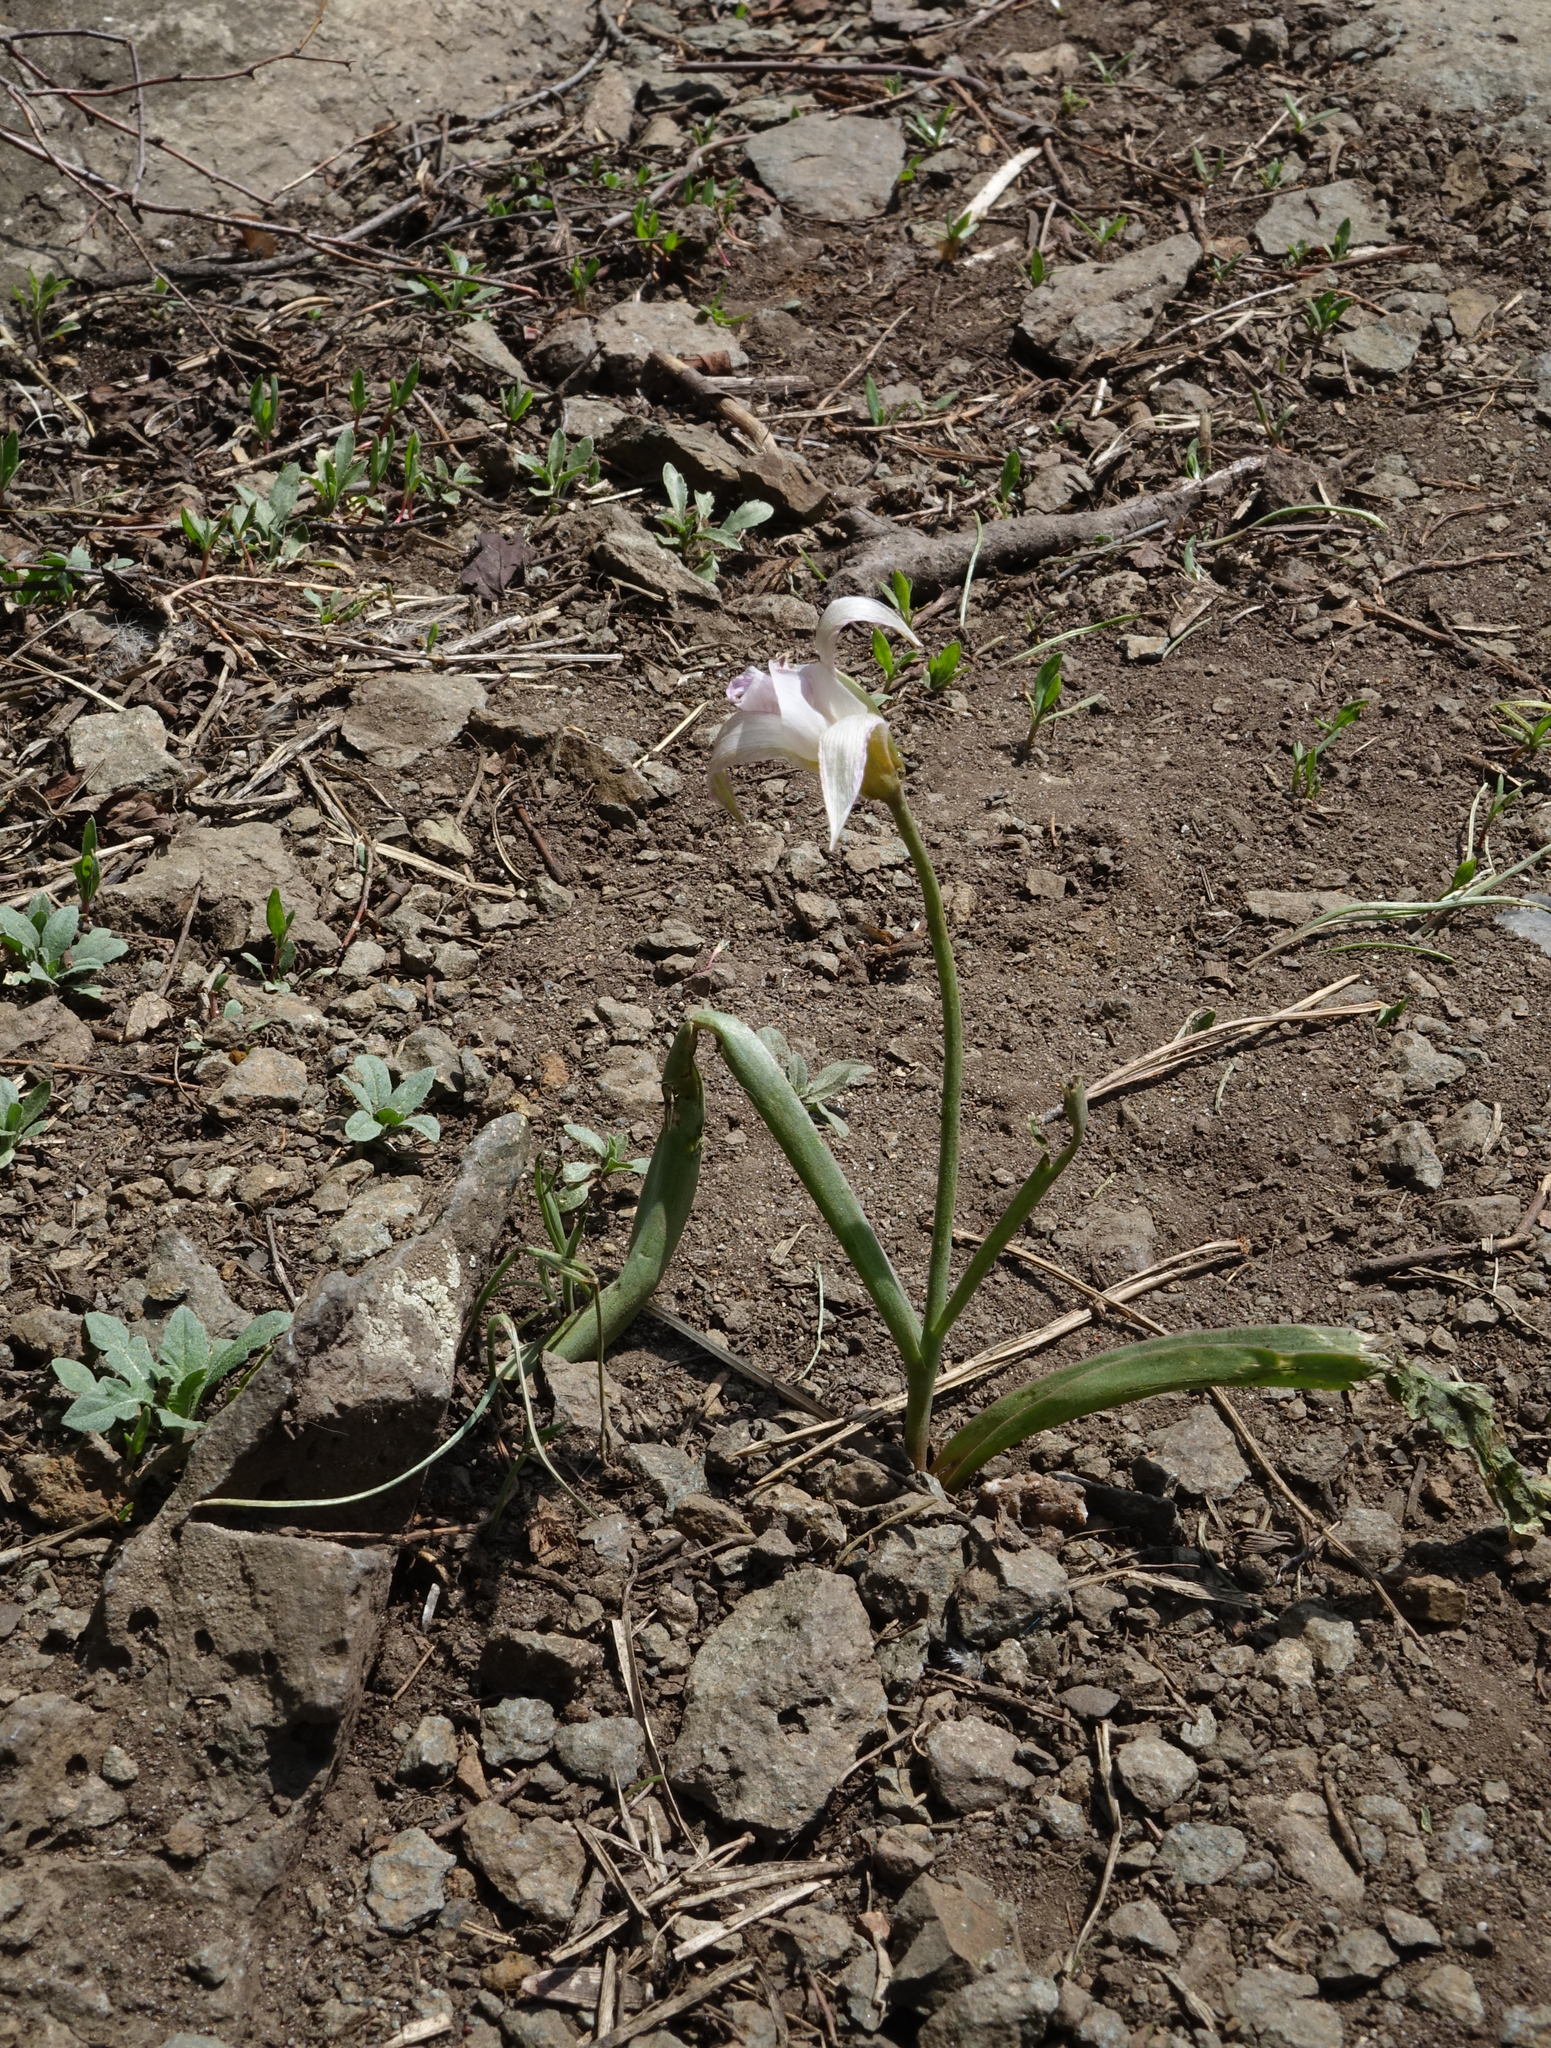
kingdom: Plantae
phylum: Tracheophyta
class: Liliopsida
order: Liliales
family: Liliaceae
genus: Tulipa
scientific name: Tulipa patens
